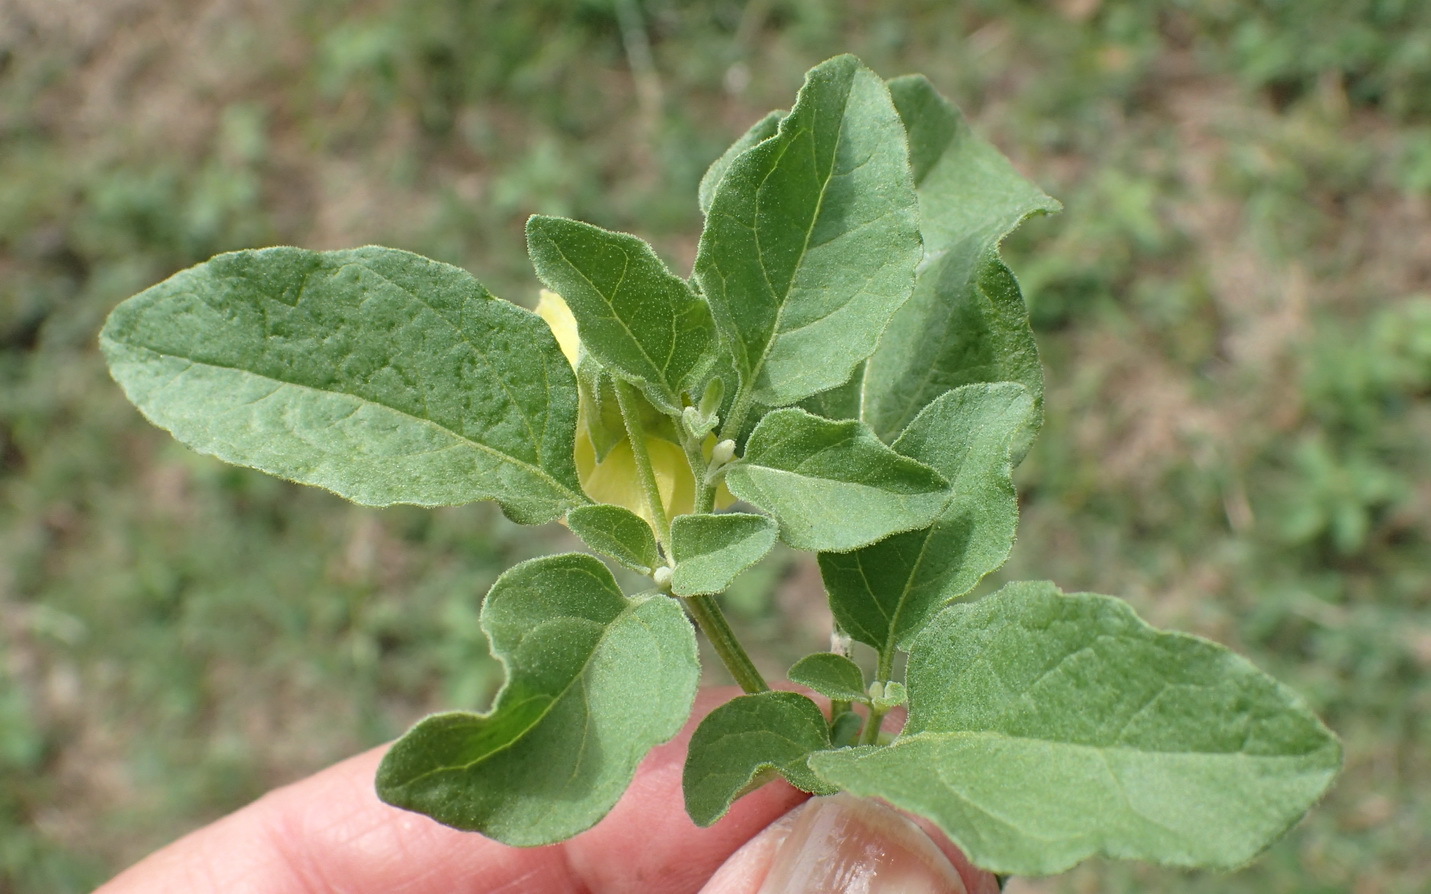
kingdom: Plantae
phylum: Tracheophyta
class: Magnoliopsida
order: Solanales
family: Solanaceae
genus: Physalis
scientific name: Physalis viscosa
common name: Stellate ground-cherry
